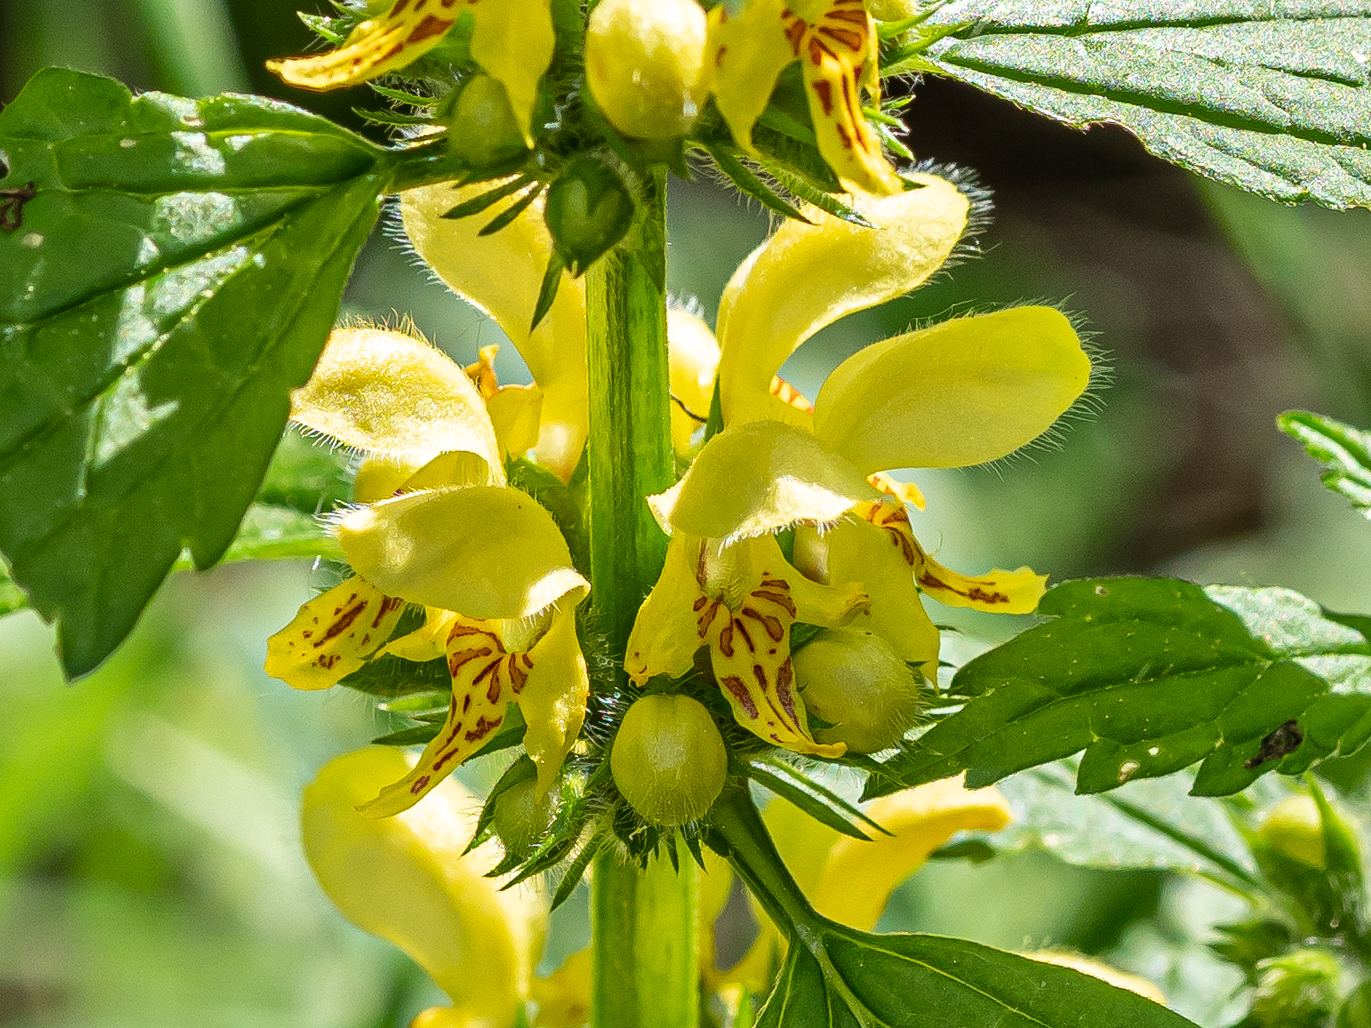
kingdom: Plantae
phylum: Tracheophyta
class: Magnoliopsida
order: Lamiales
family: Lamiaceae
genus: Lamium
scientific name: Lamium galeobdolon
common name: Yellow archangel
